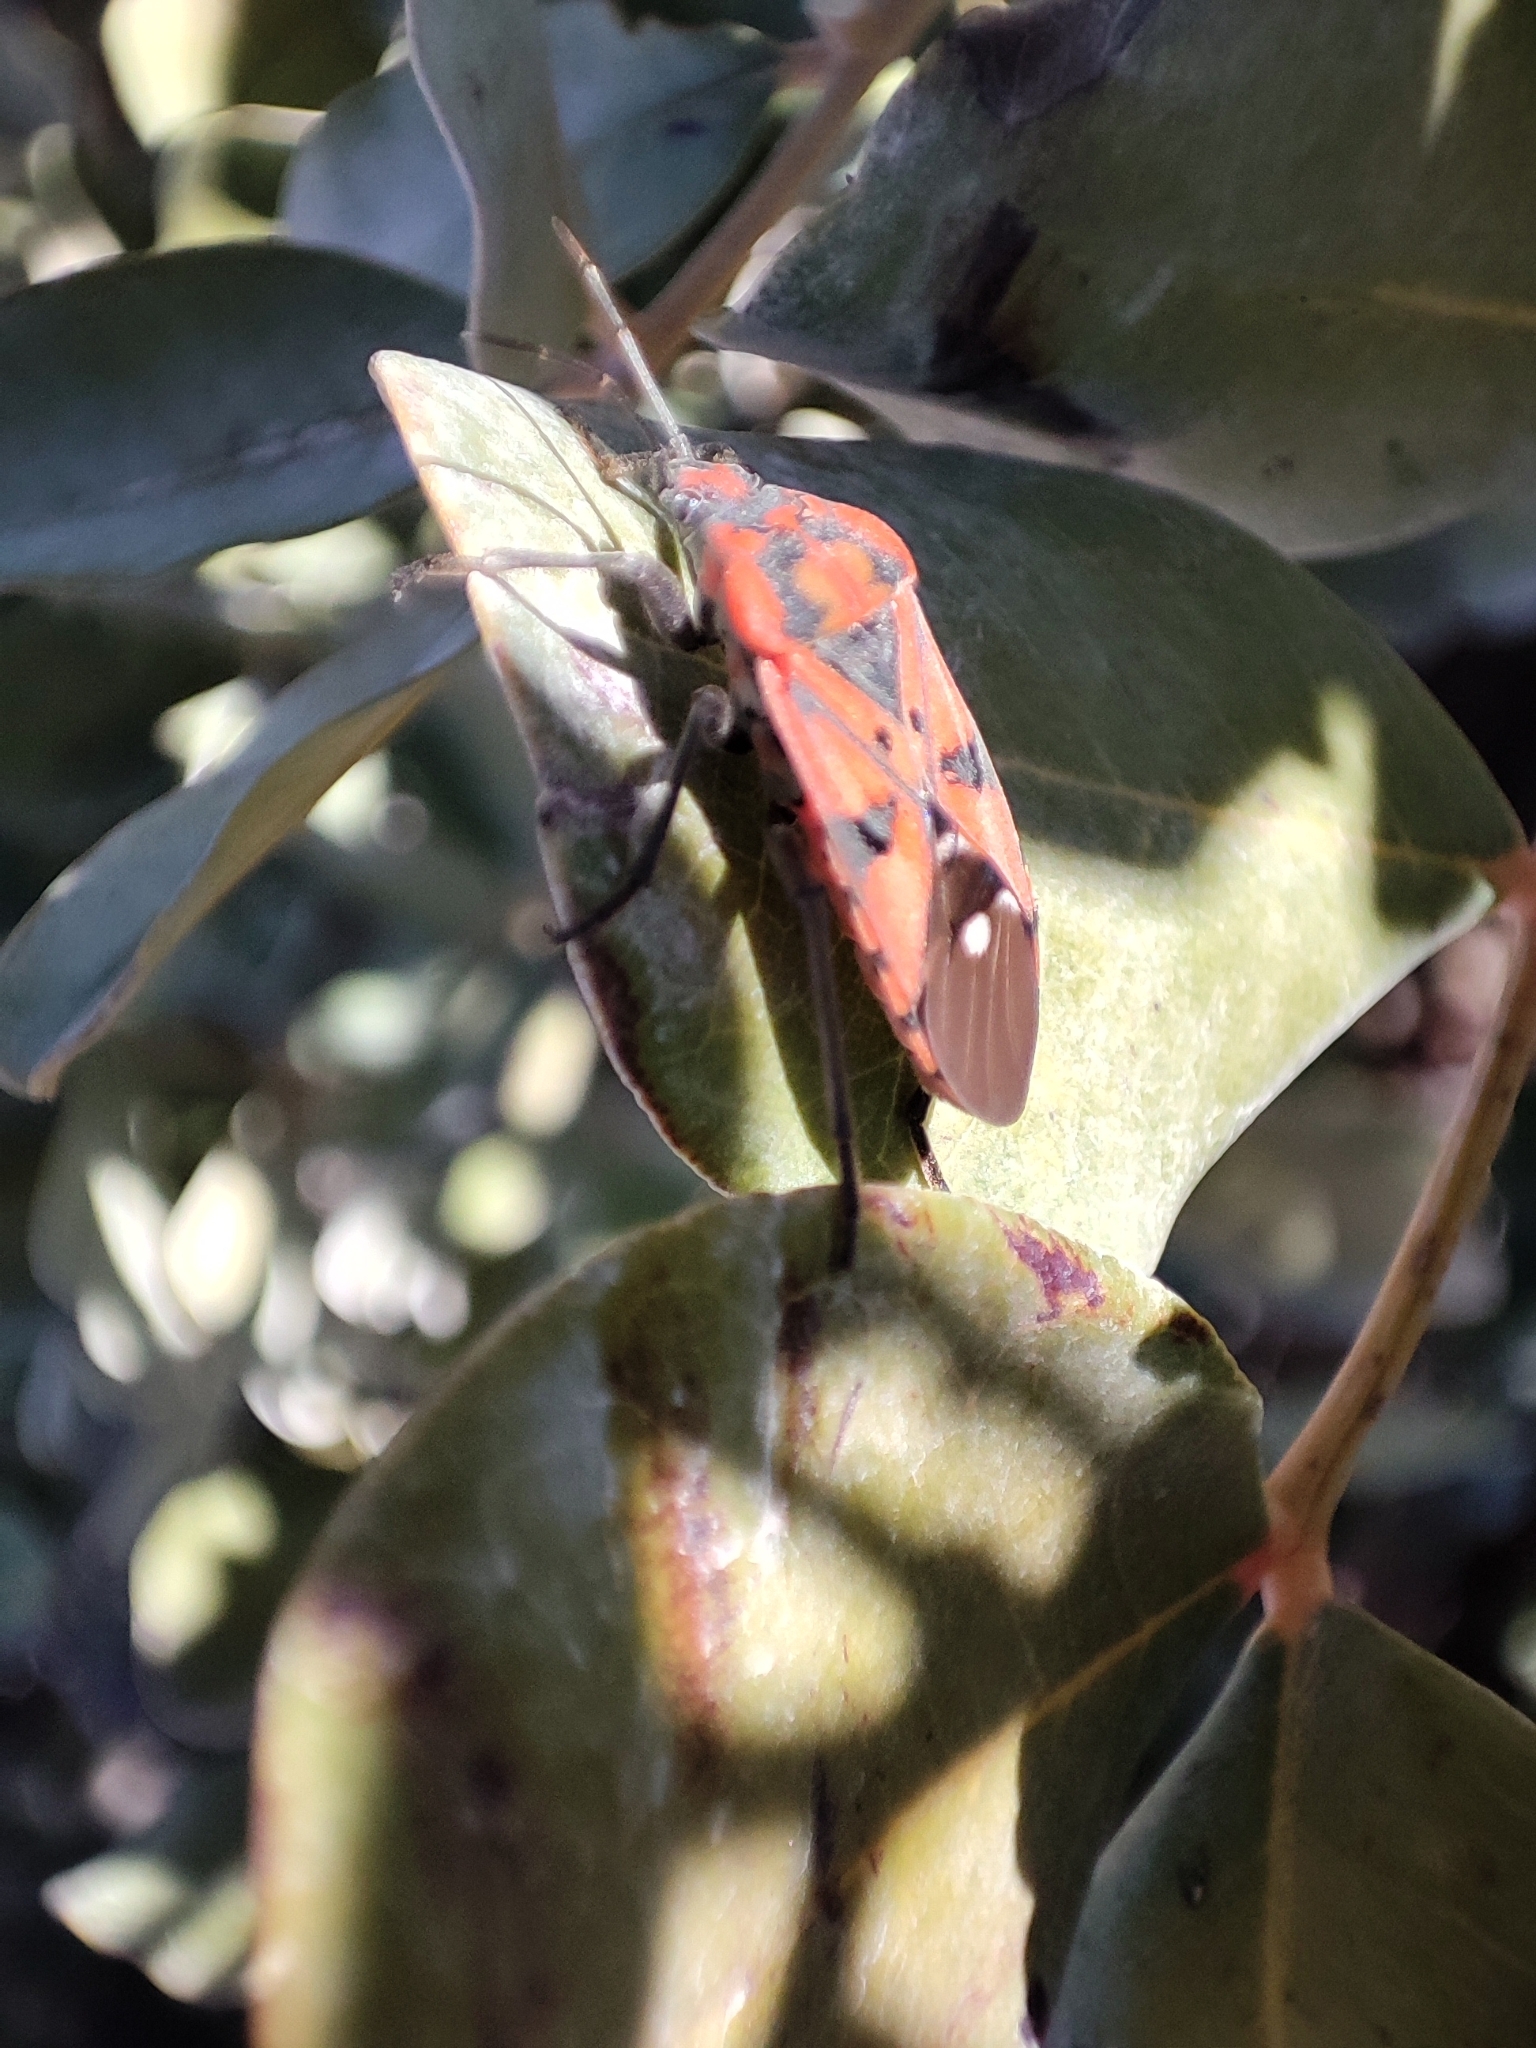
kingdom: Animalia
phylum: Arthropoda
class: Insecta
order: Hemiptera
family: Lygaeidae
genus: Spilostethus
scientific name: Spilostethus pandurus
